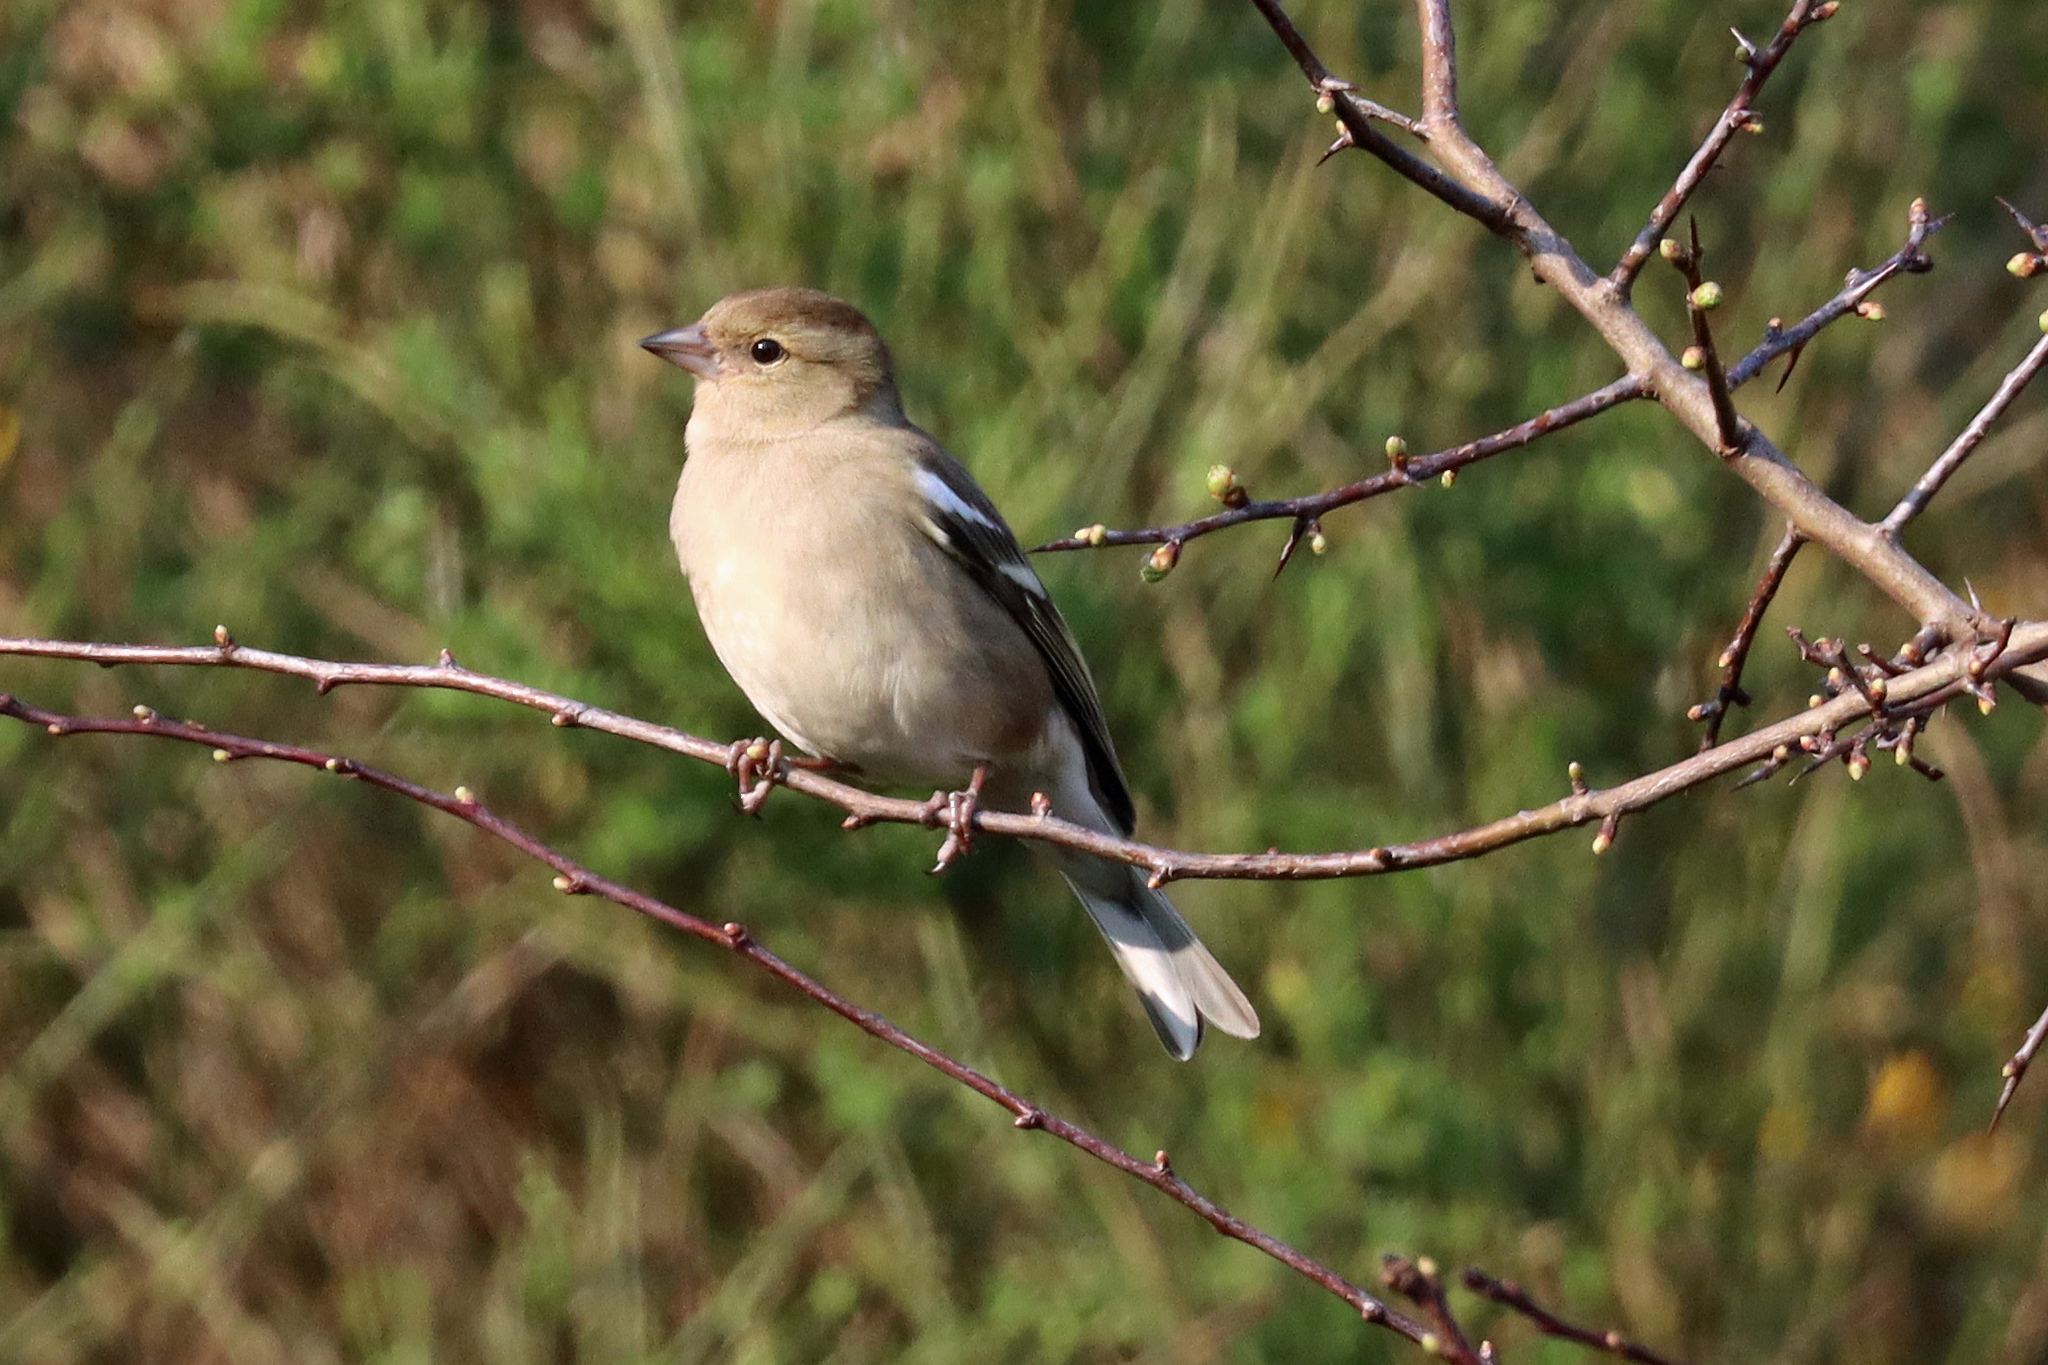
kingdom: Animalia
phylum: Chordata
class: Aves
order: Passeriformes
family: Fringillidae
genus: Fringilla
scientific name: Fringilla coelebs
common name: Common chaffinch
